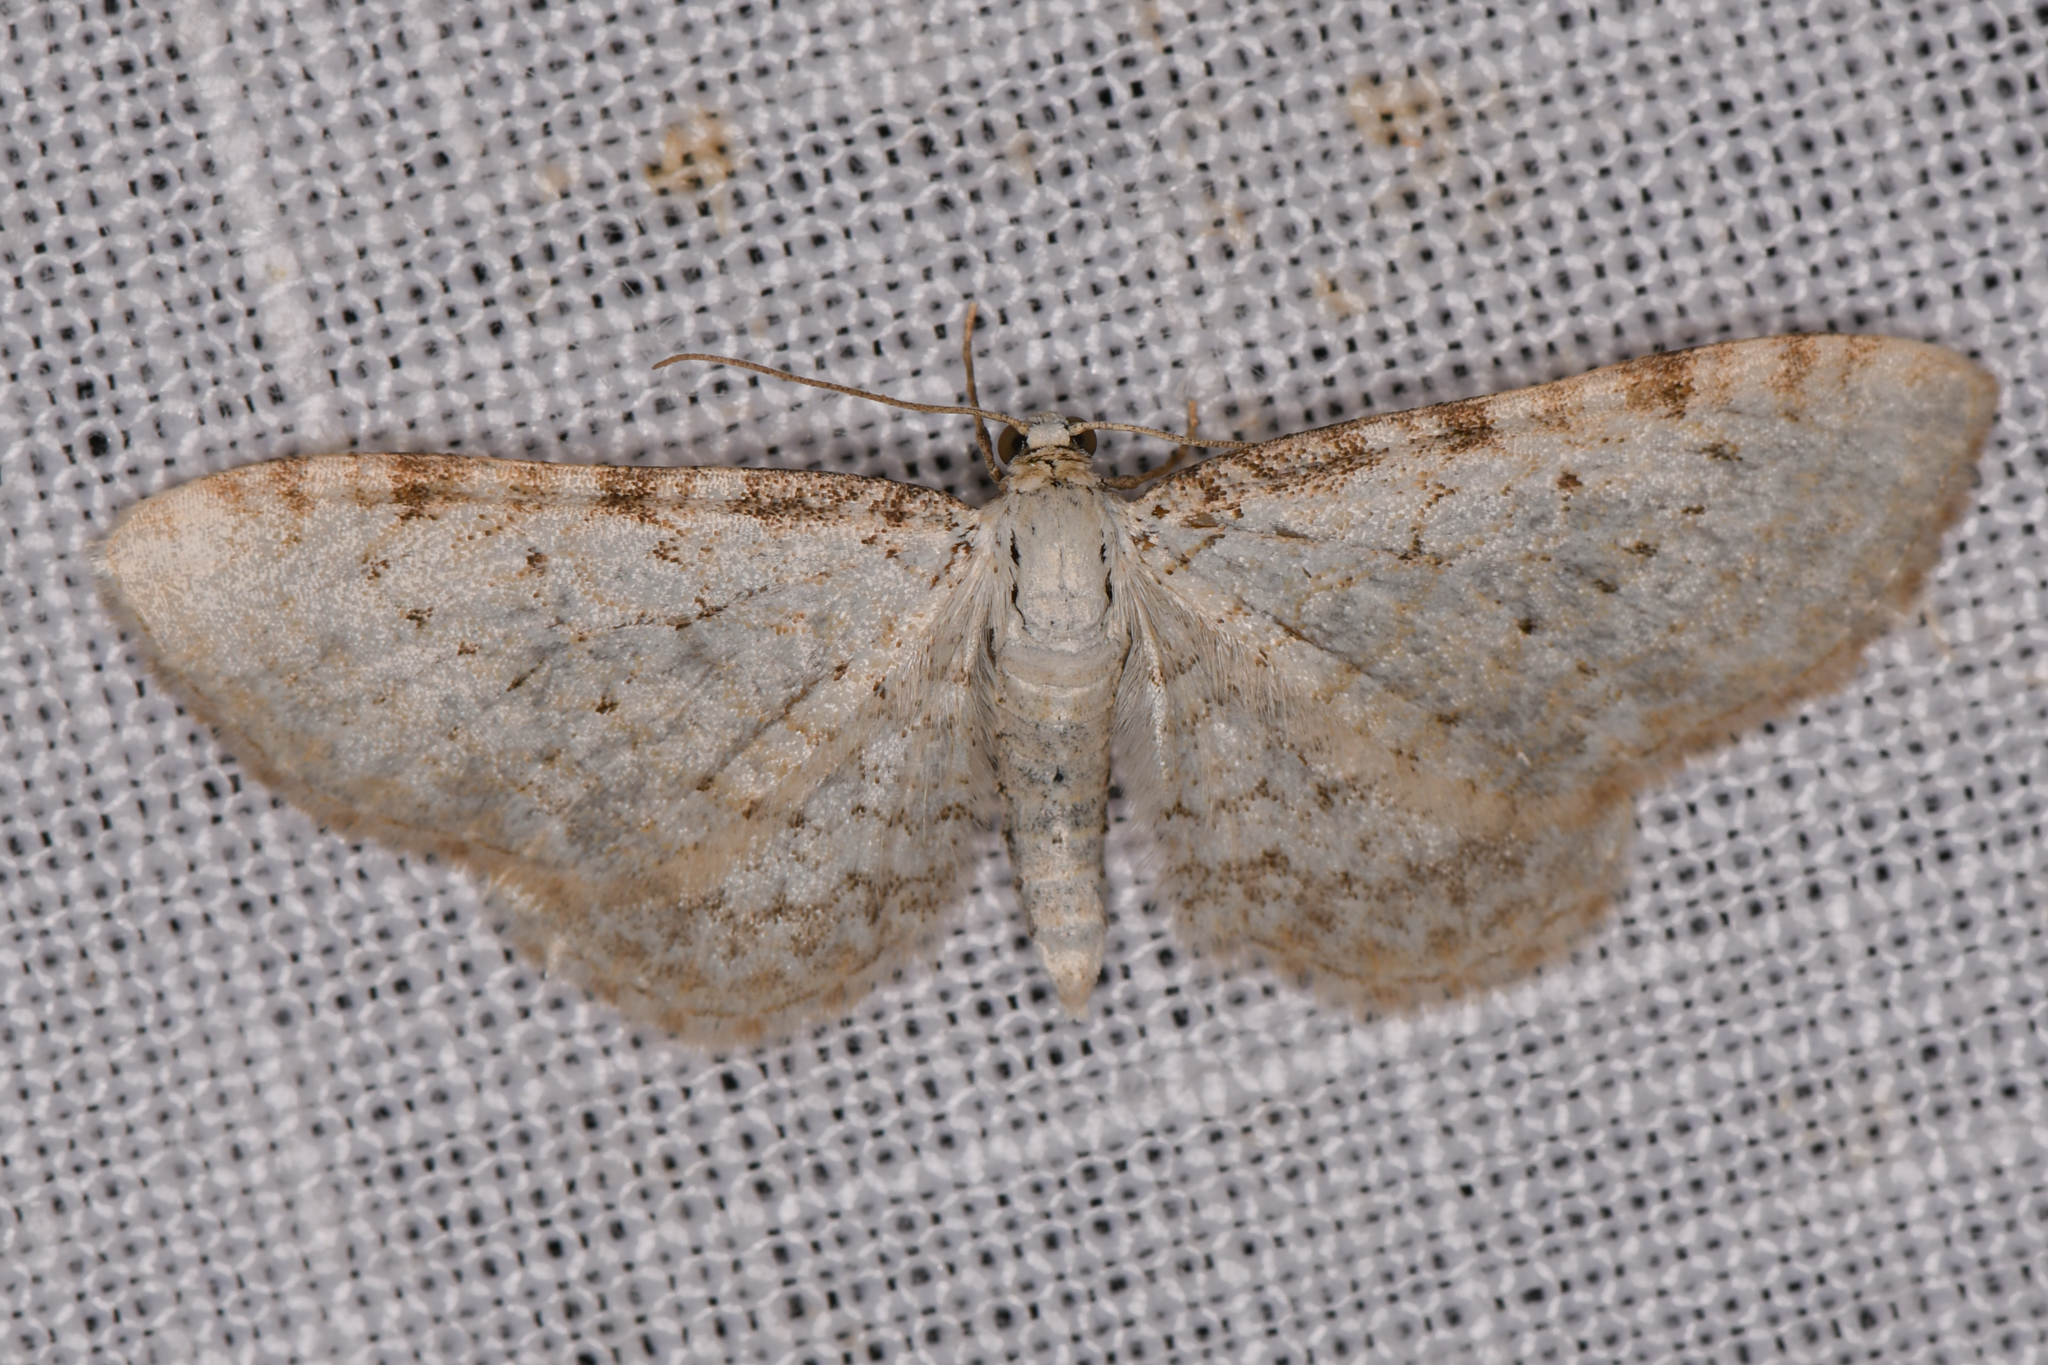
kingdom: Animalia
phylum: Arthropoda
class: Insecta
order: Lepidoptera
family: Geometridae
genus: Eupithecia
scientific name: Eupithecia cretaceata
